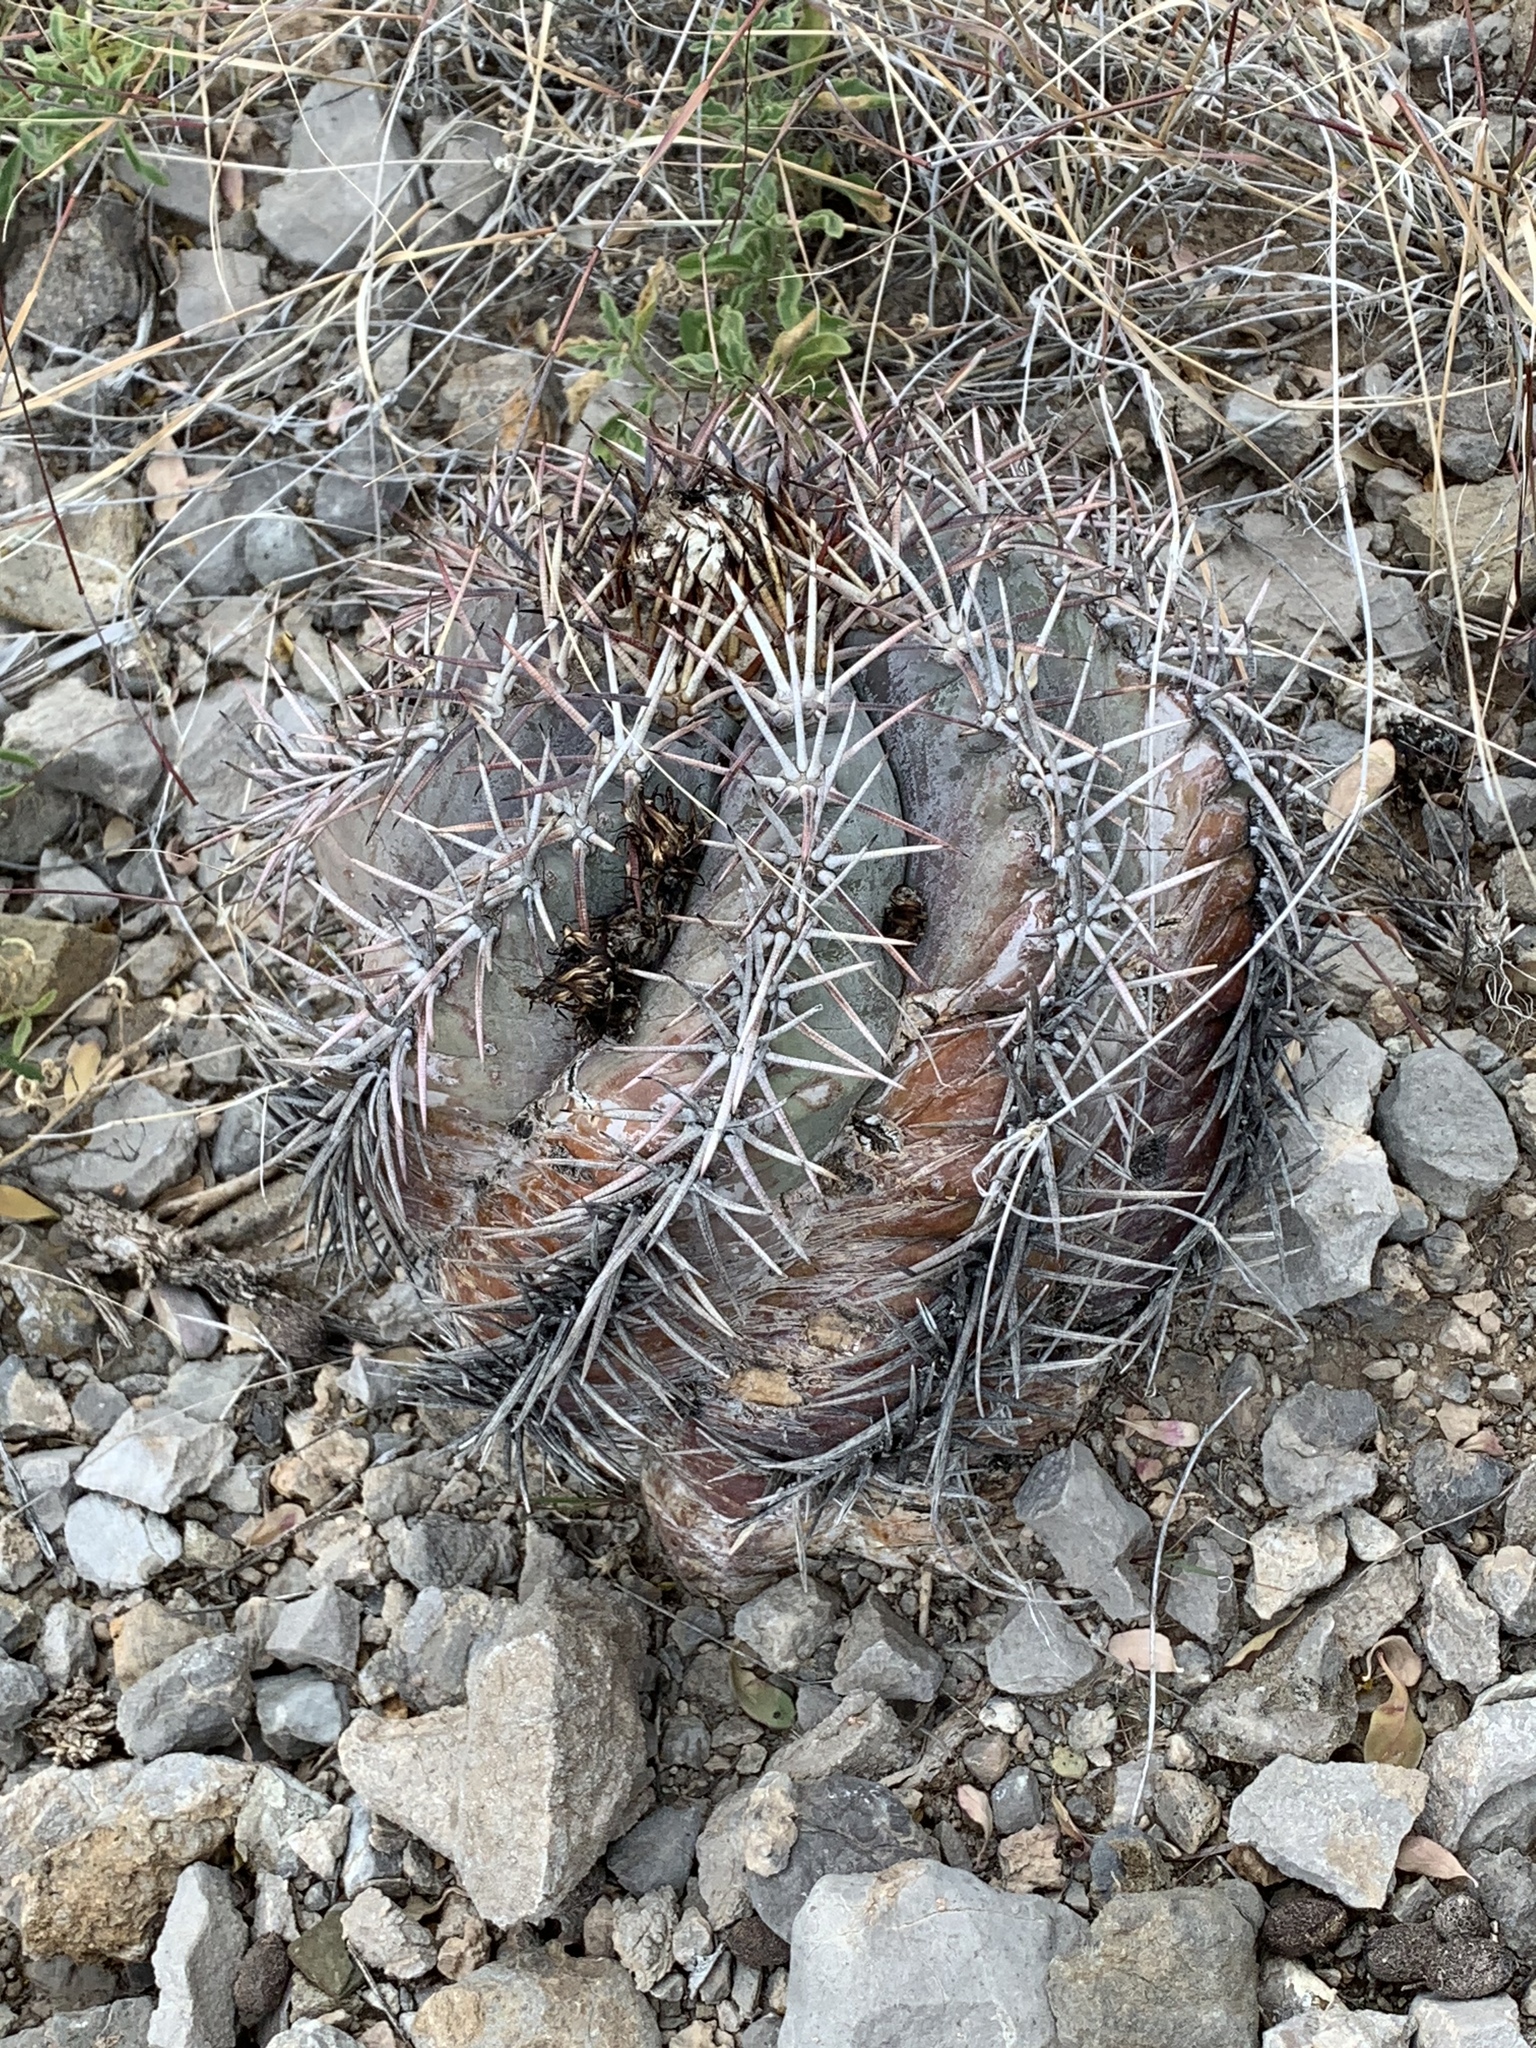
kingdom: Plantae
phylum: Tracheophyta
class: Magnoliopsida
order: Caryophyllales
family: Cactaceae
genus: Echinocactus
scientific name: Echinocactus horizonthalonius
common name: Devilshead
